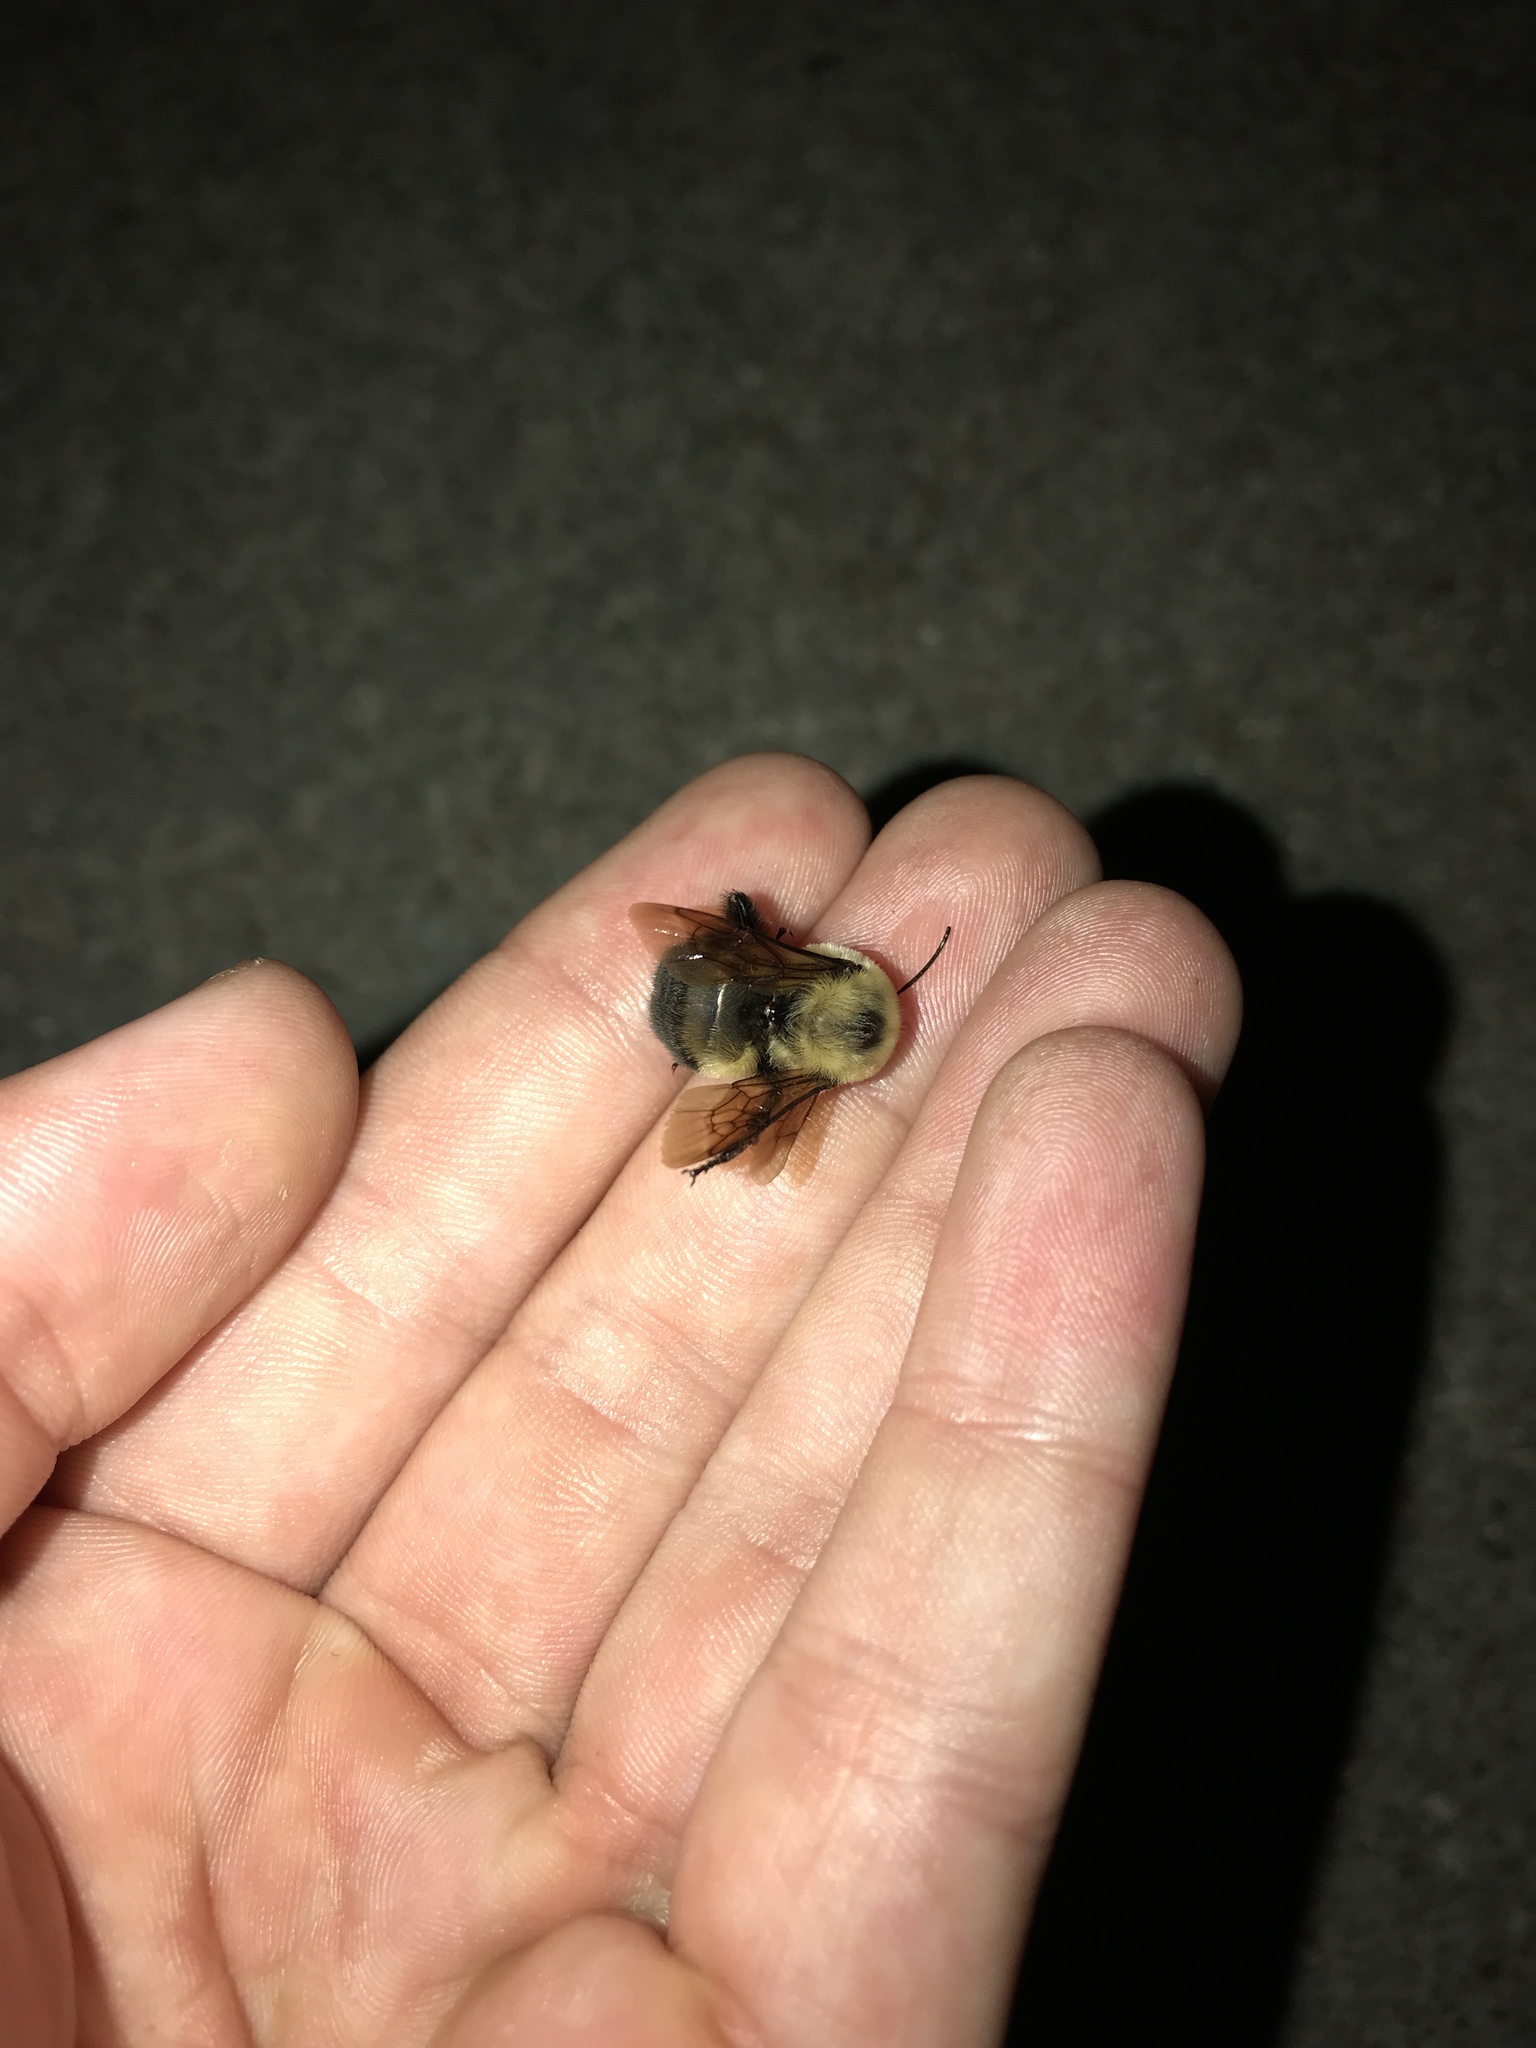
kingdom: Animalia
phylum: Arthropoda
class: Insecta
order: Hymenoptera
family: Apidae
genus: Bombus
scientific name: Bombus griseocollis
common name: Brown-belted bumble bee
